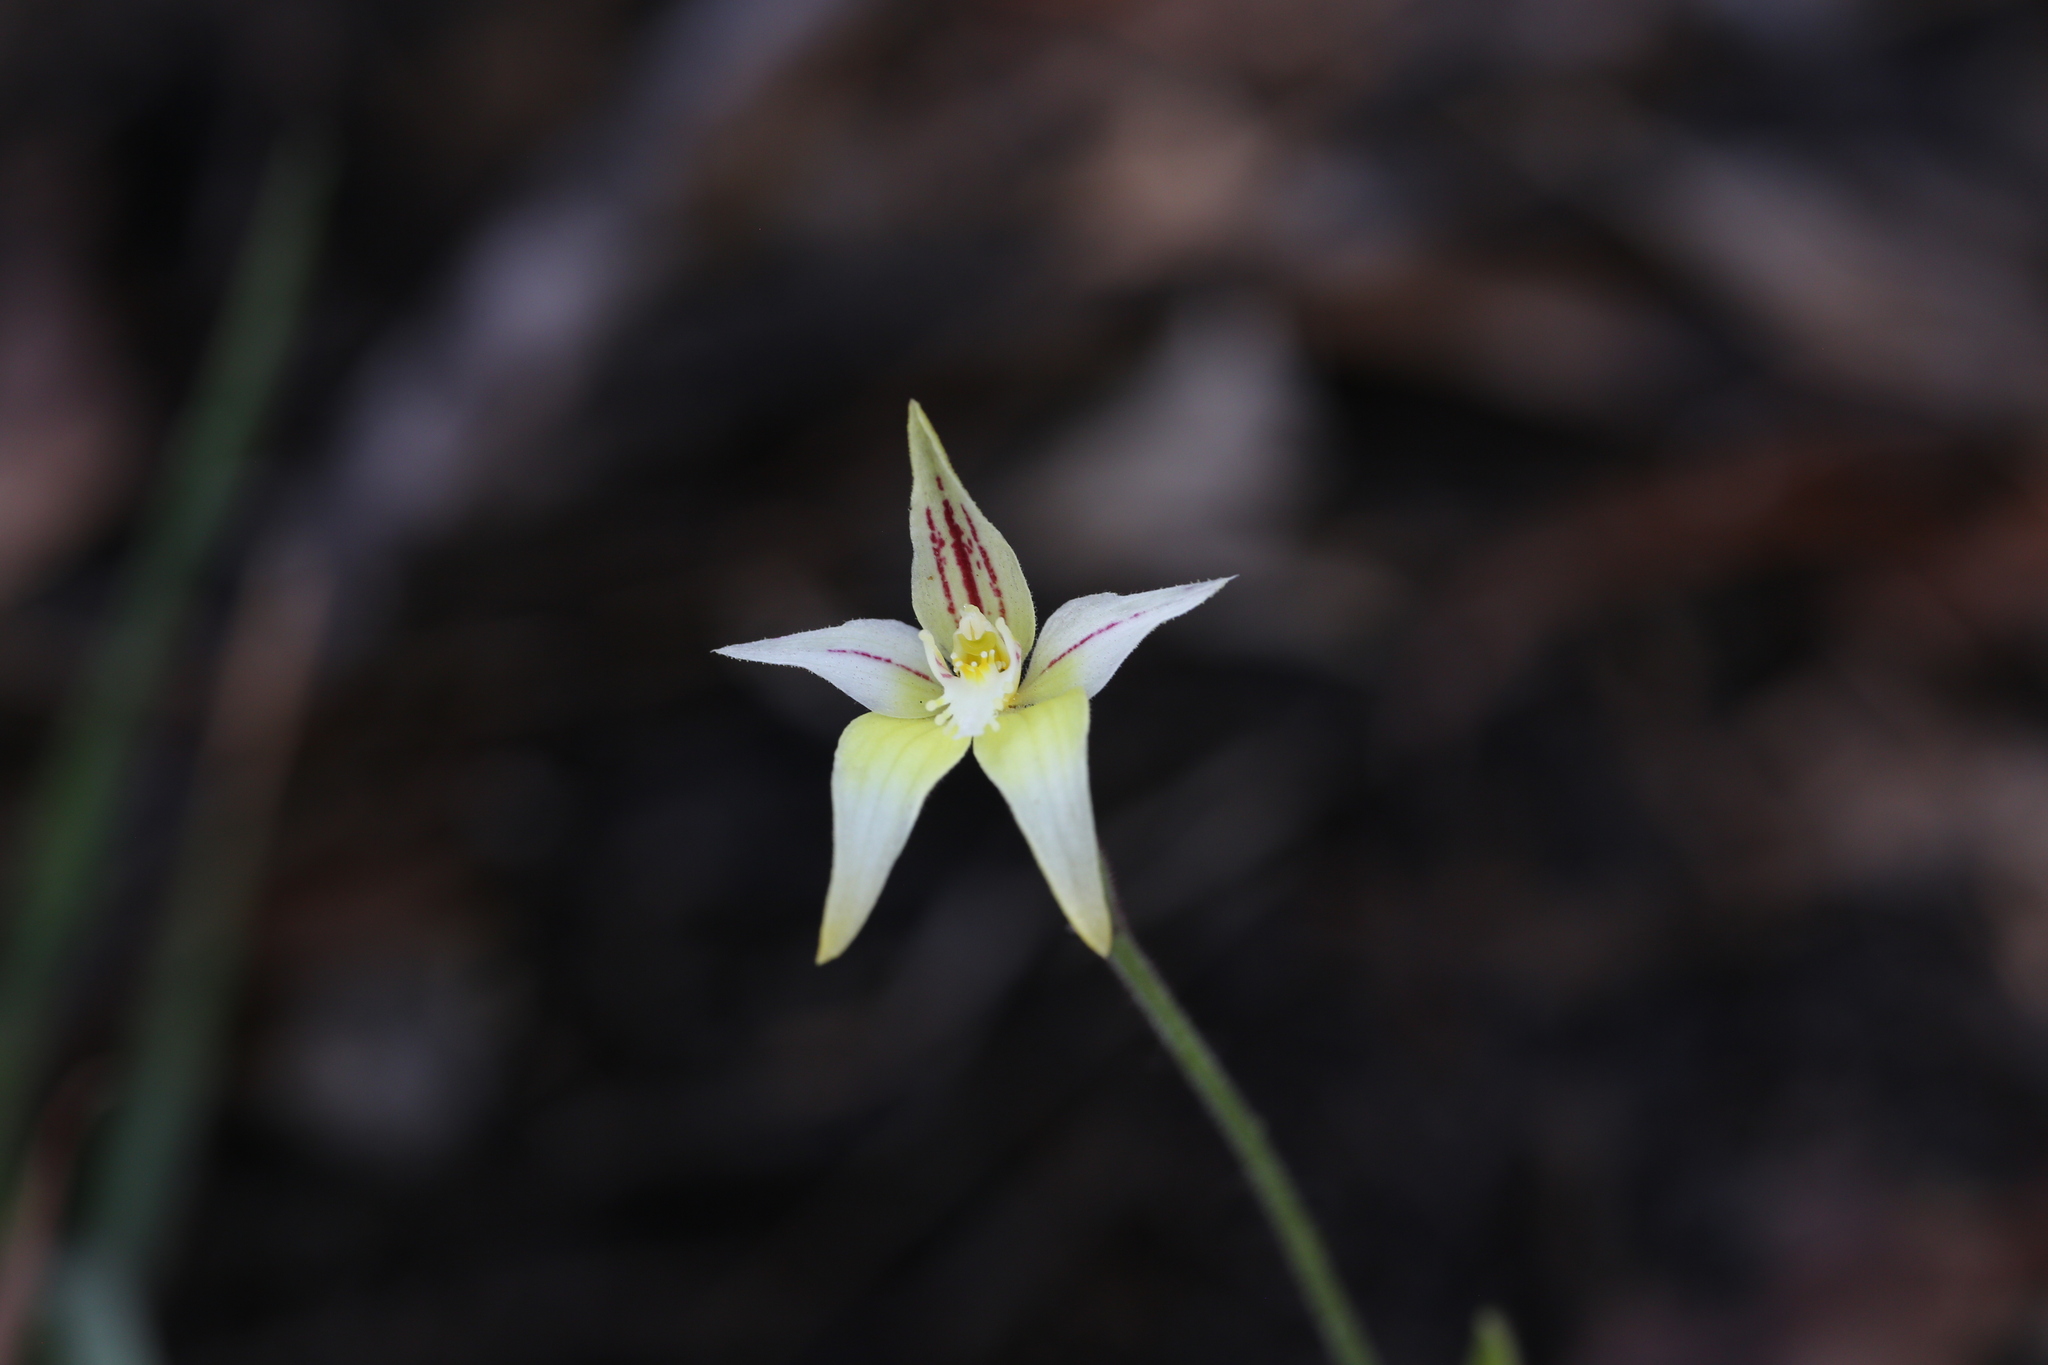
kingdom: Plantae
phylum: Tracheophyta
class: Liliopsida
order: Asparagales
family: Orchidaceae
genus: Caladenia
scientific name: Caladenia flava
